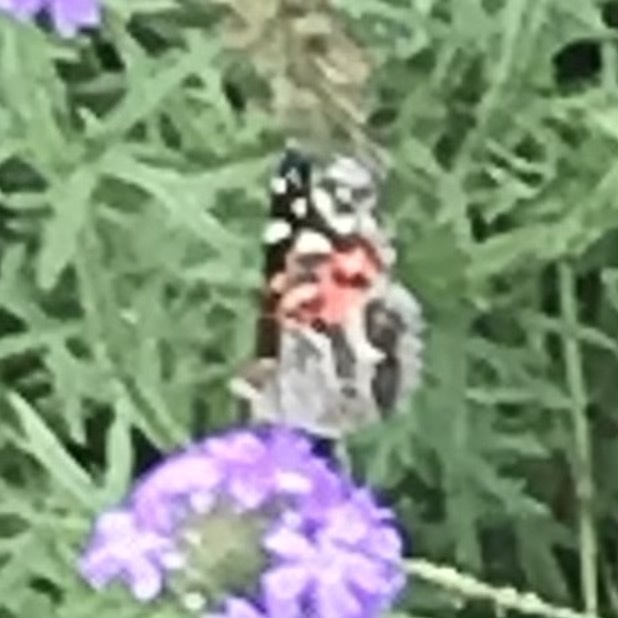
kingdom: Animalia
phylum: Arthropoda
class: Insecta
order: Lepidoptera
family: Nymphalidae
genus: Vanessa
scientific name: Vanessa virginiensis
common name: American lady
